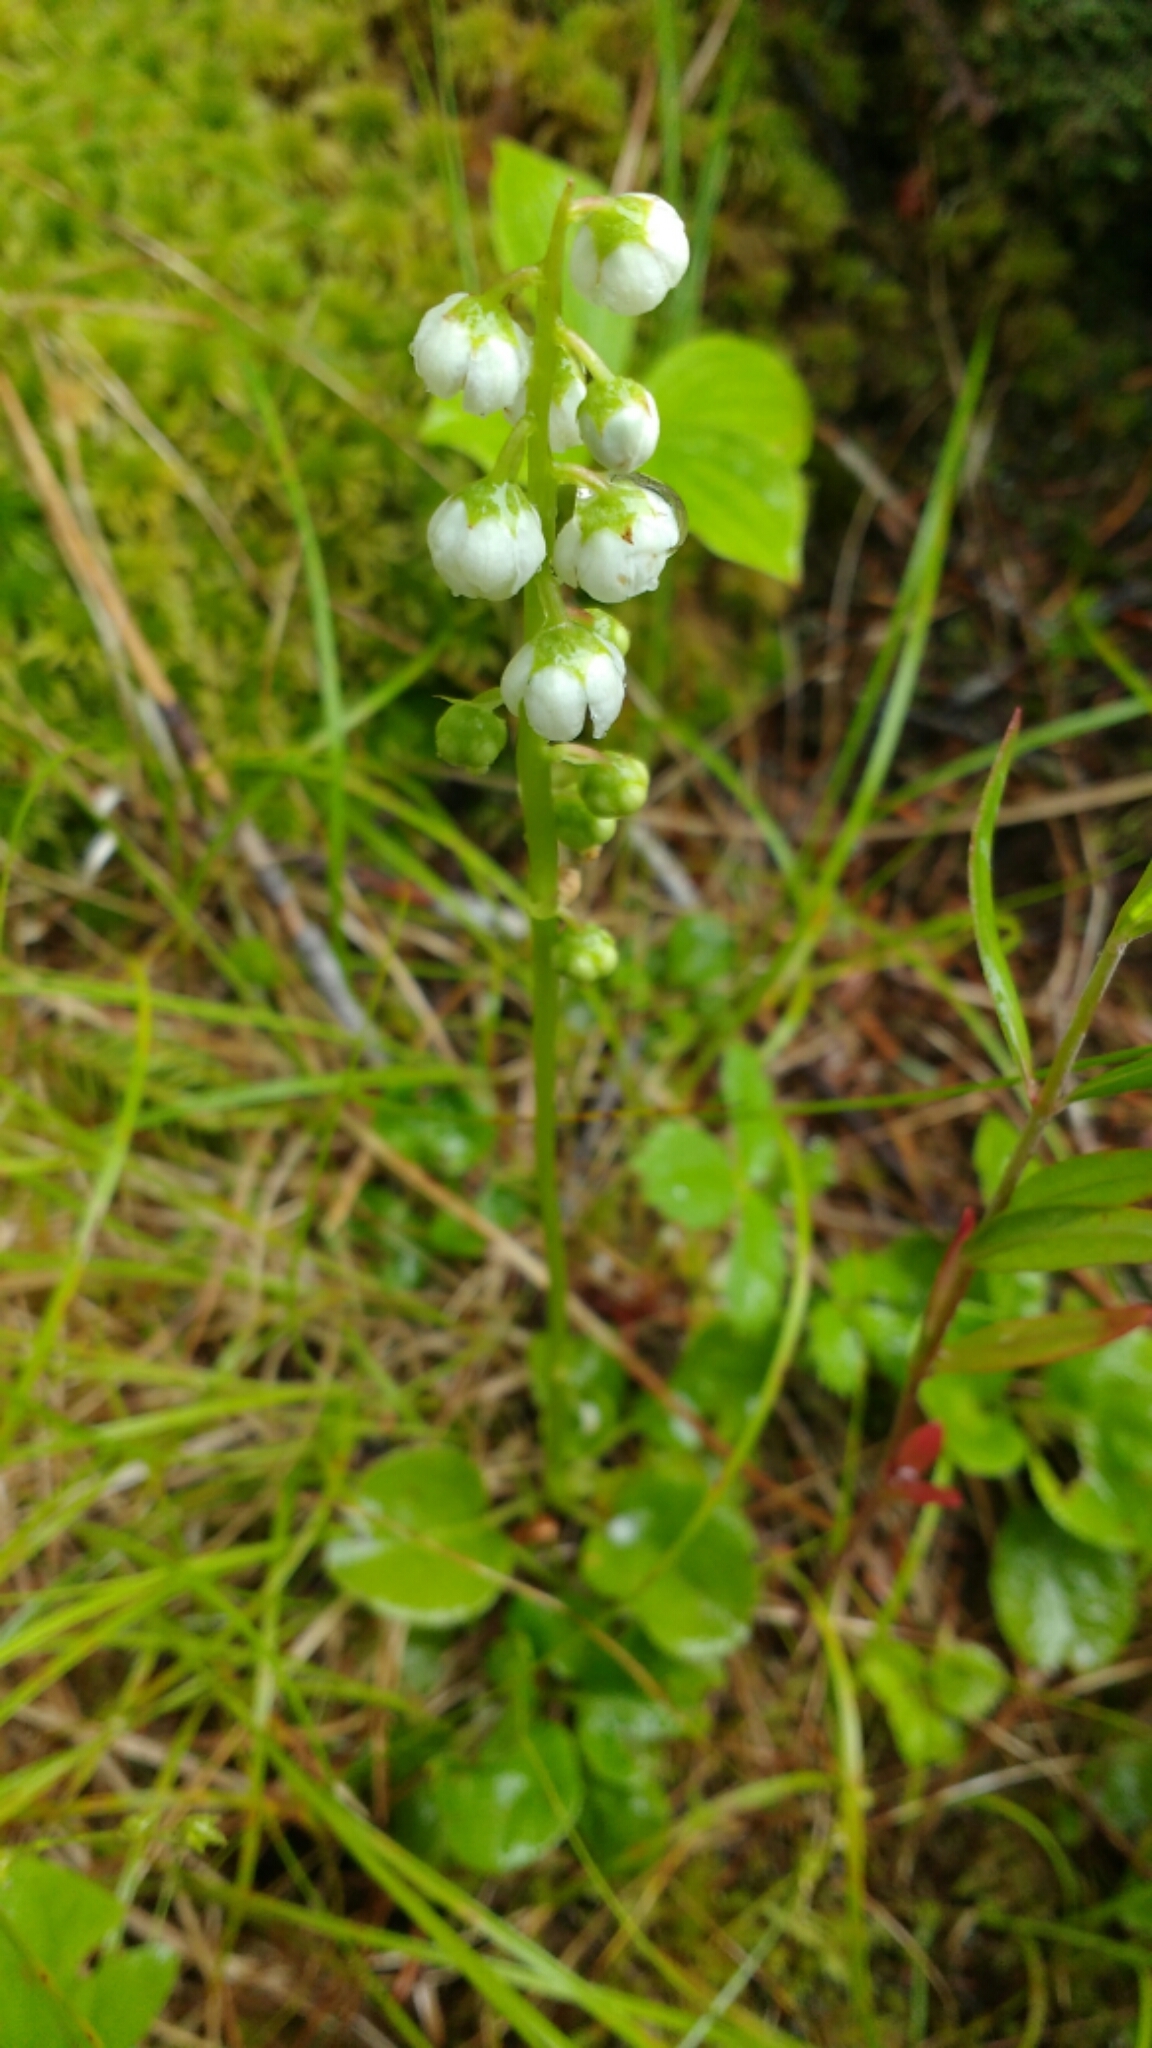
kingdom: Plantae
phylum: Tracheophyta
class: Magnoliopsida
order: Ericales
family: Ericaceae
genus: Pyrola
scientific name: Pyrola minor
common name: Common wintergreen
